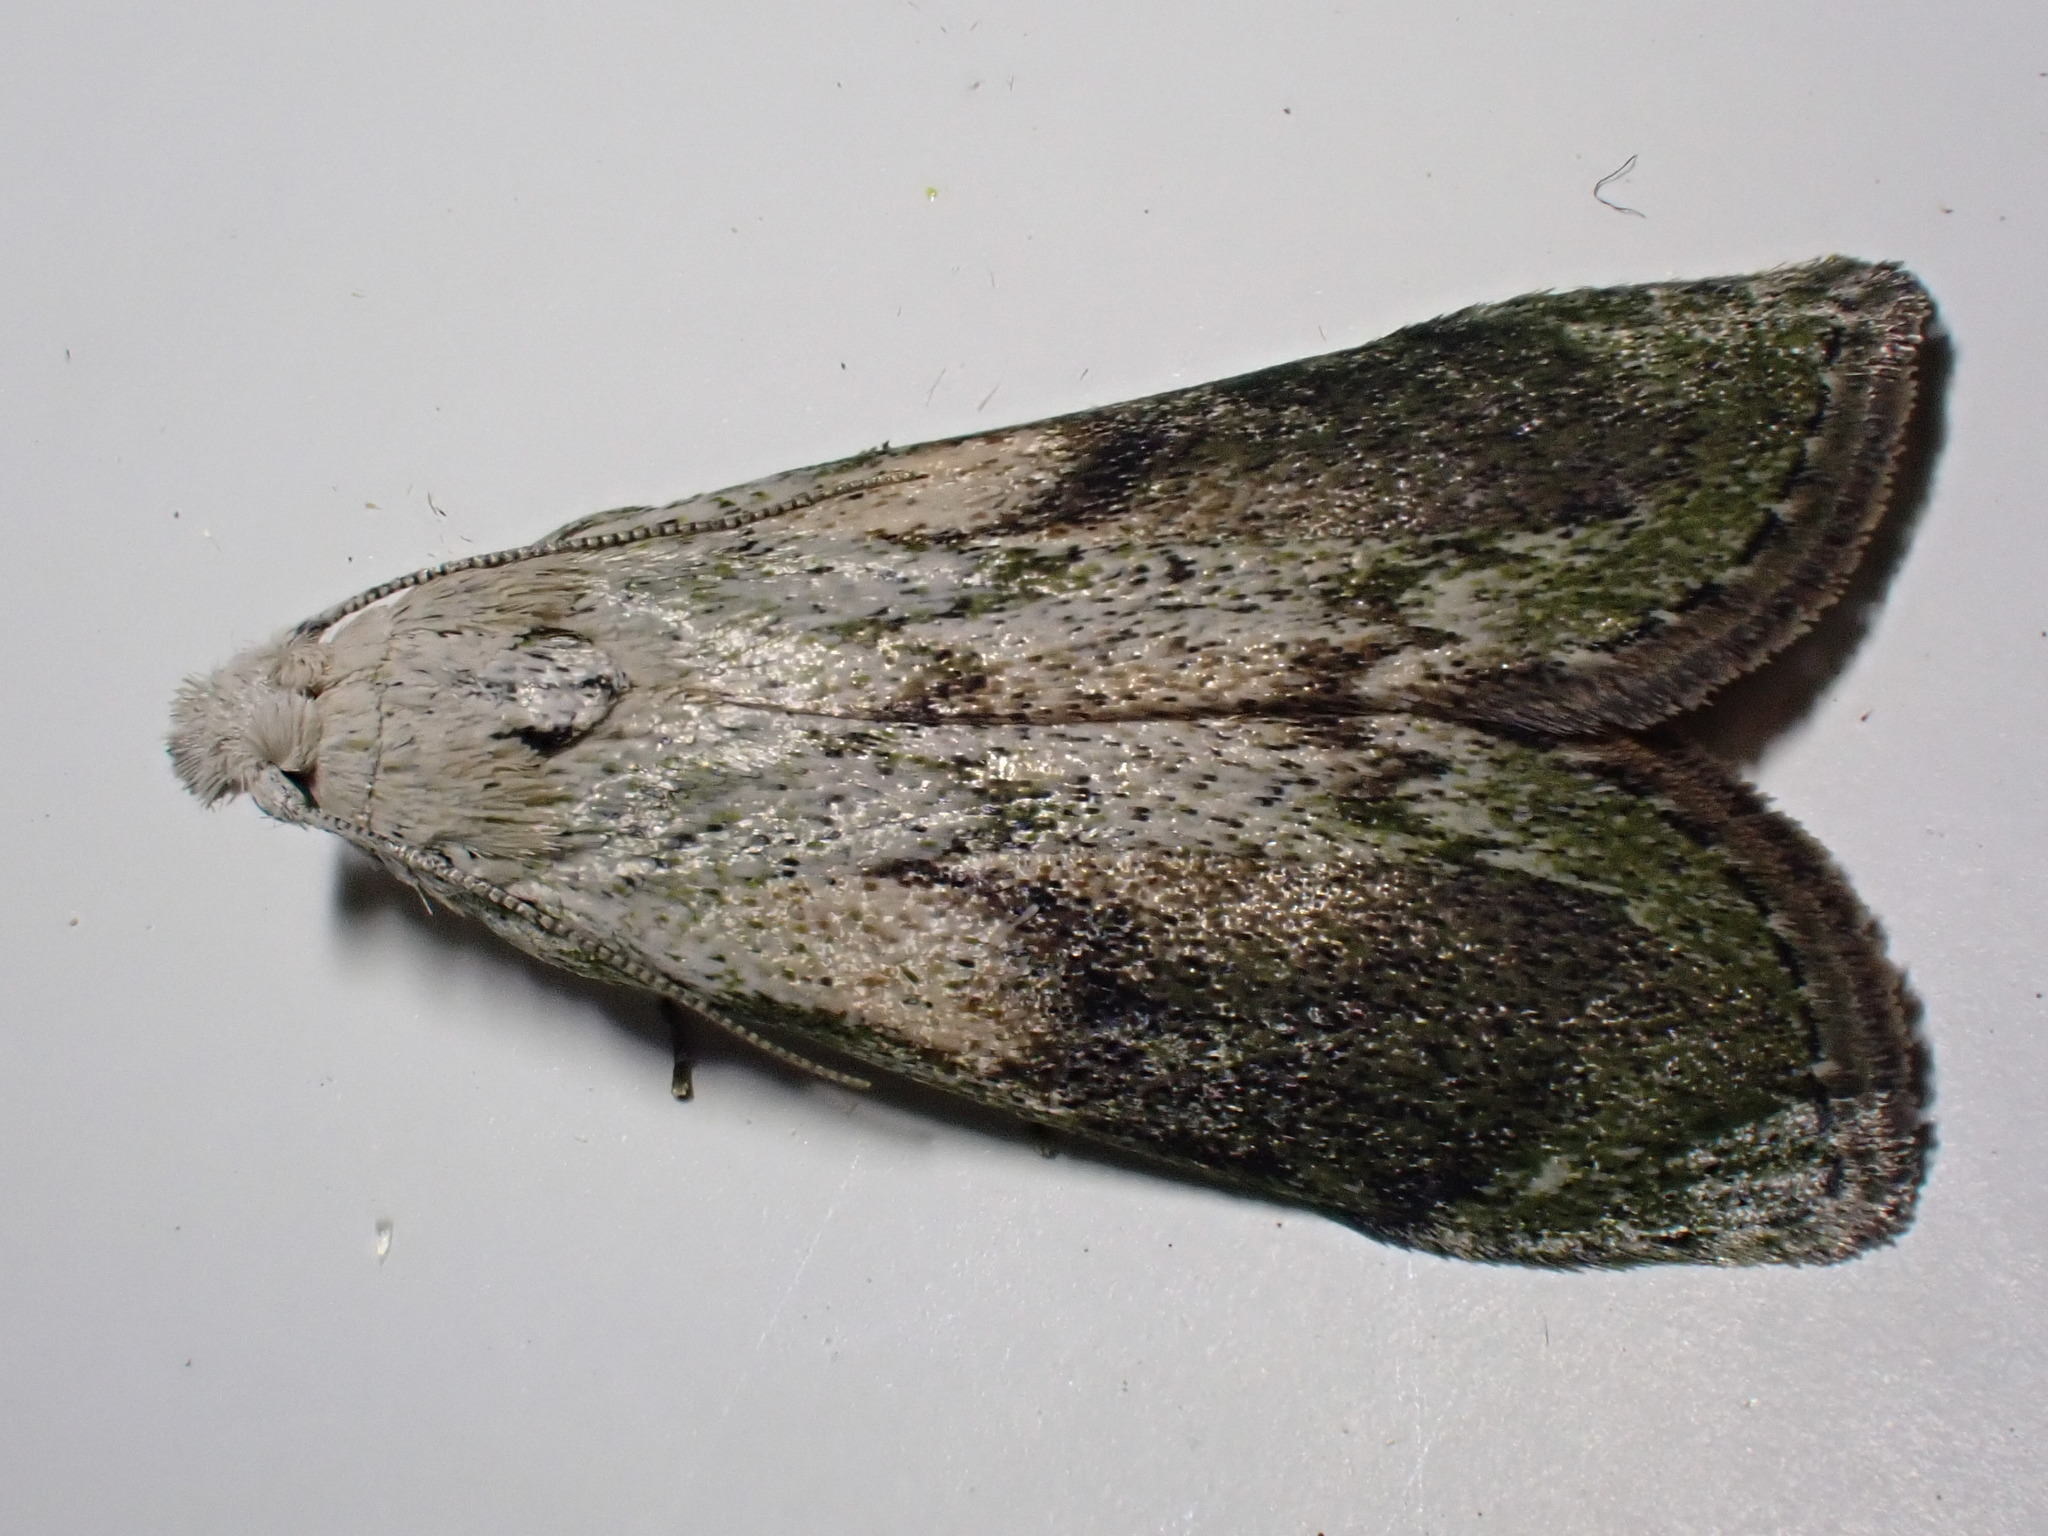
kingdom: Animalia
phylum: Arthropoda
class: Insecta
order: Lepidoptera
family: Pyralidae
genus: Aphomia
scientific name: Aphomia sociella
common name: Bee moth
